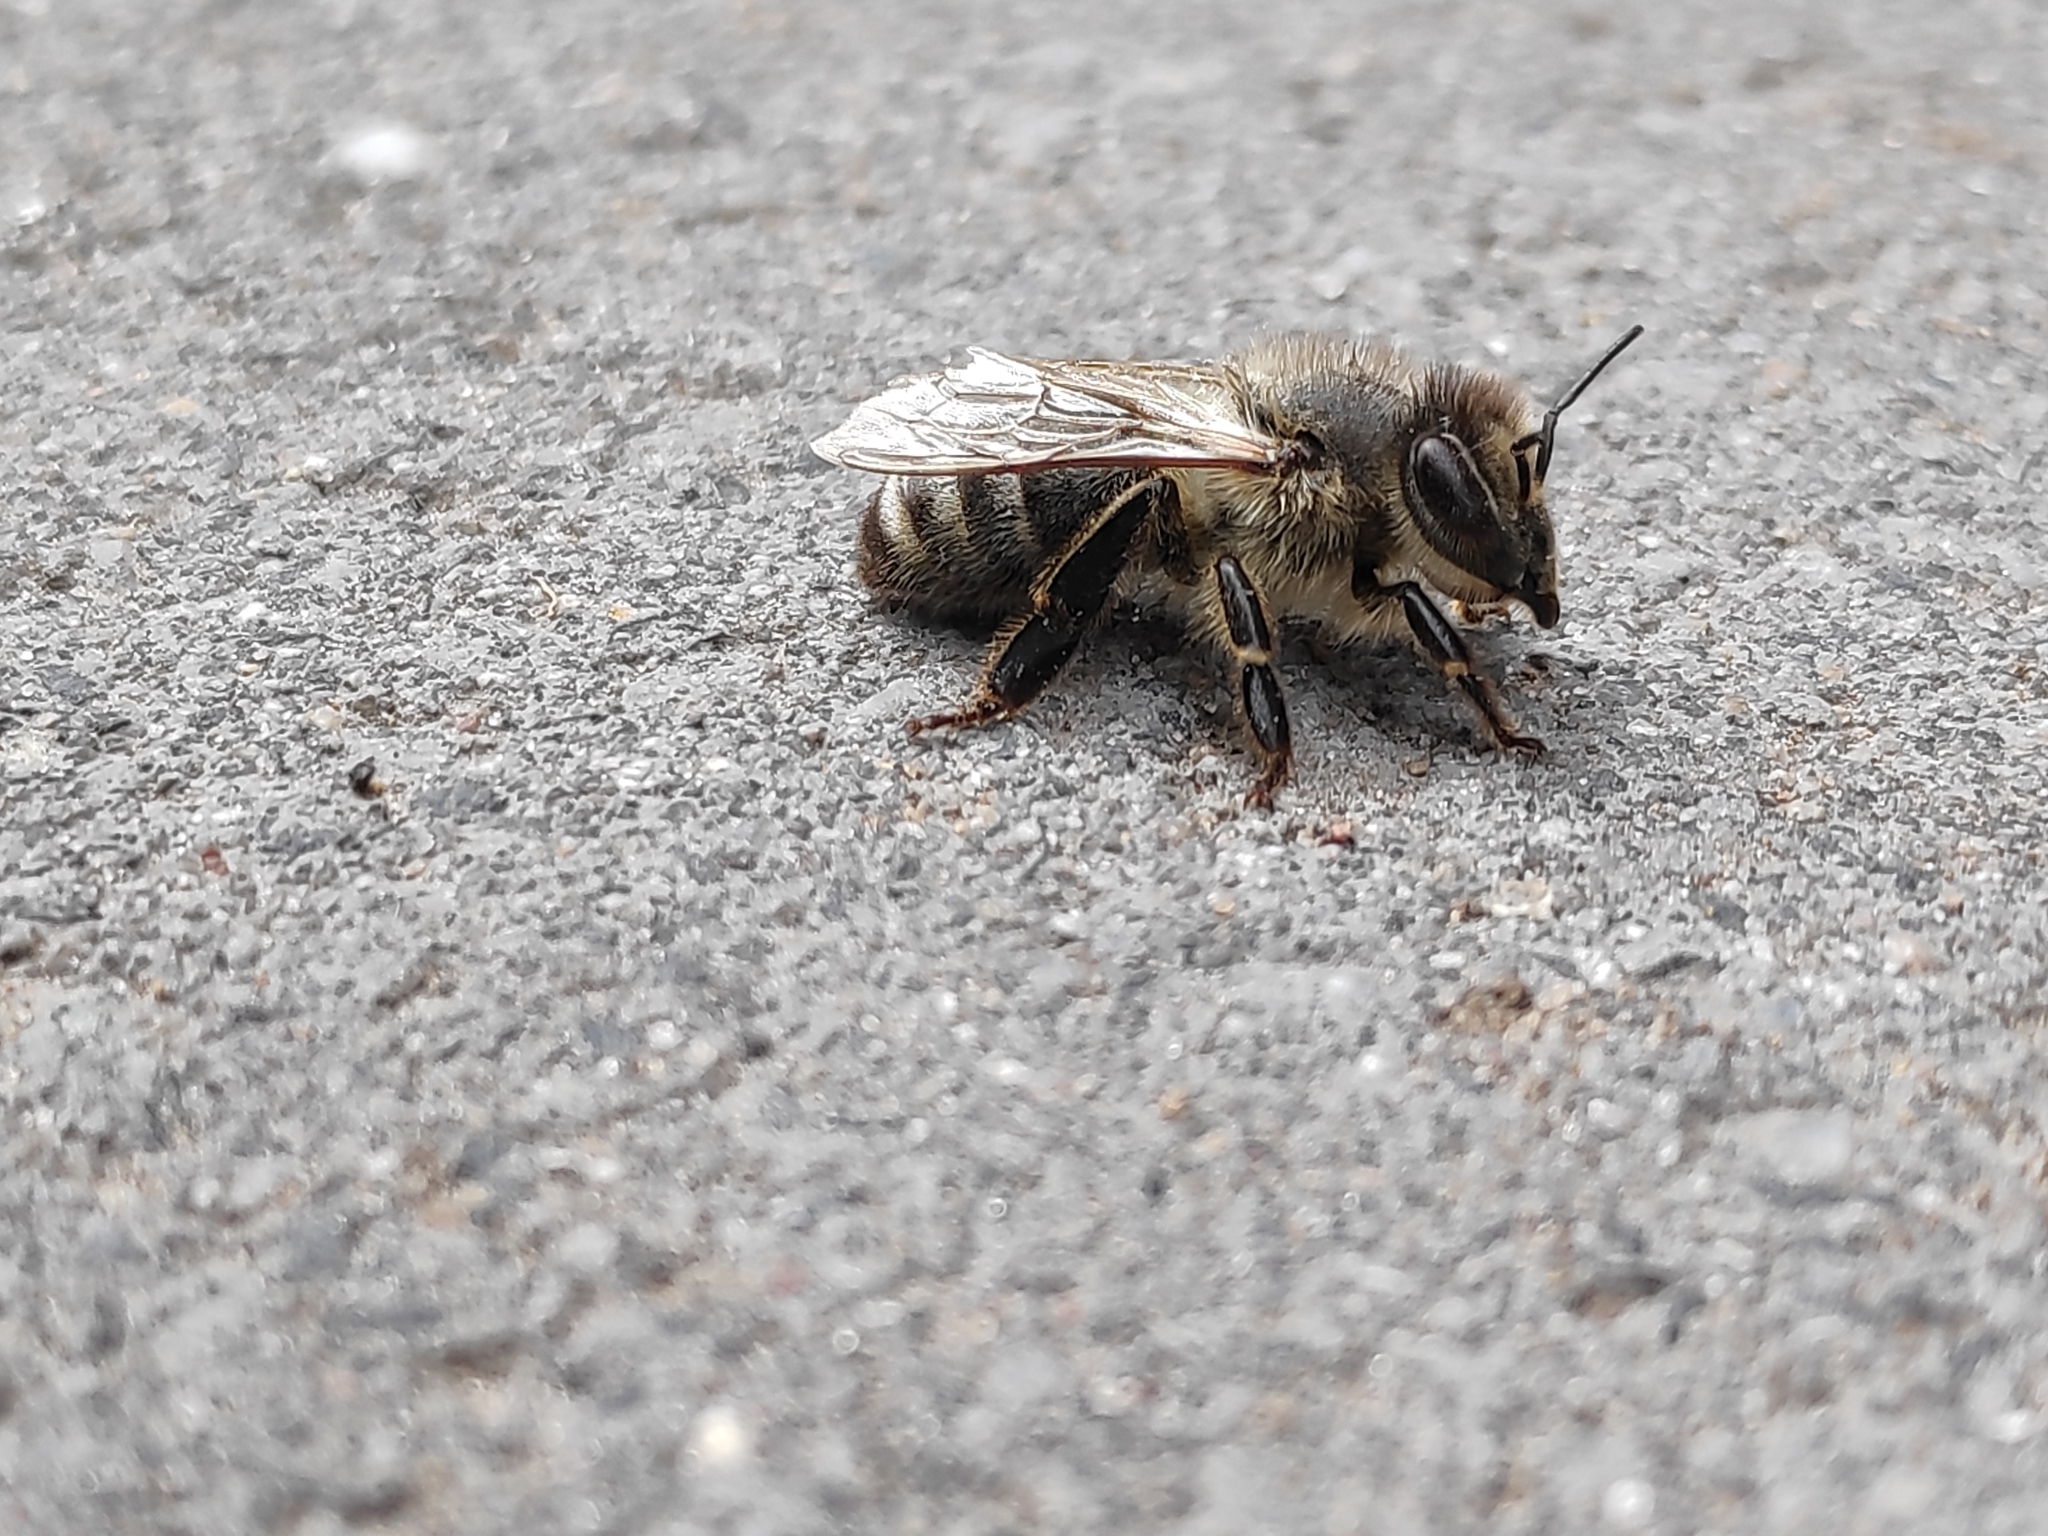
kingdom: Animalia
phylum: Arthropoda
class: Insecta
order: Hymenoptera
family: Apidae
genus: Apis
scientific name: Apis mellifera
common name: Honey bee
